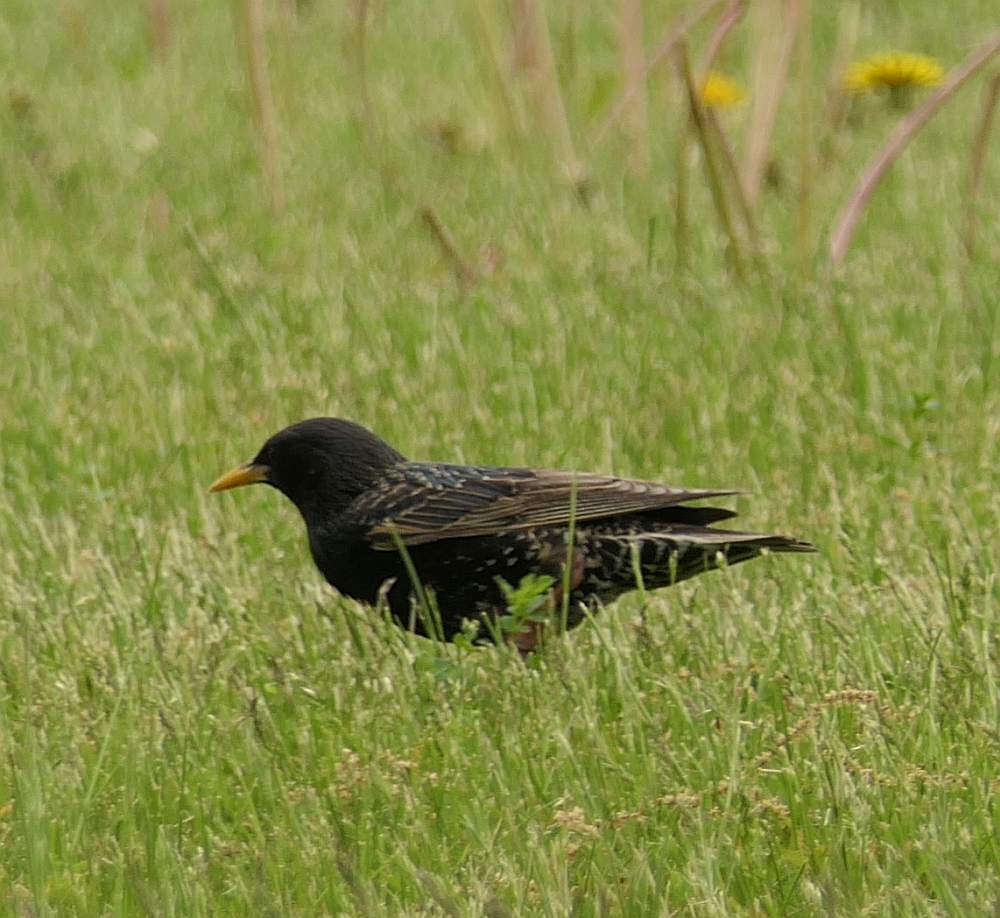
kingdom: Animalia
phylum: Chordata
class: Aves
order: Passeriformes
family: Sturnidae
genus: Sturnus
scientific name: Sturnus vulgaris
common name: Common starling
